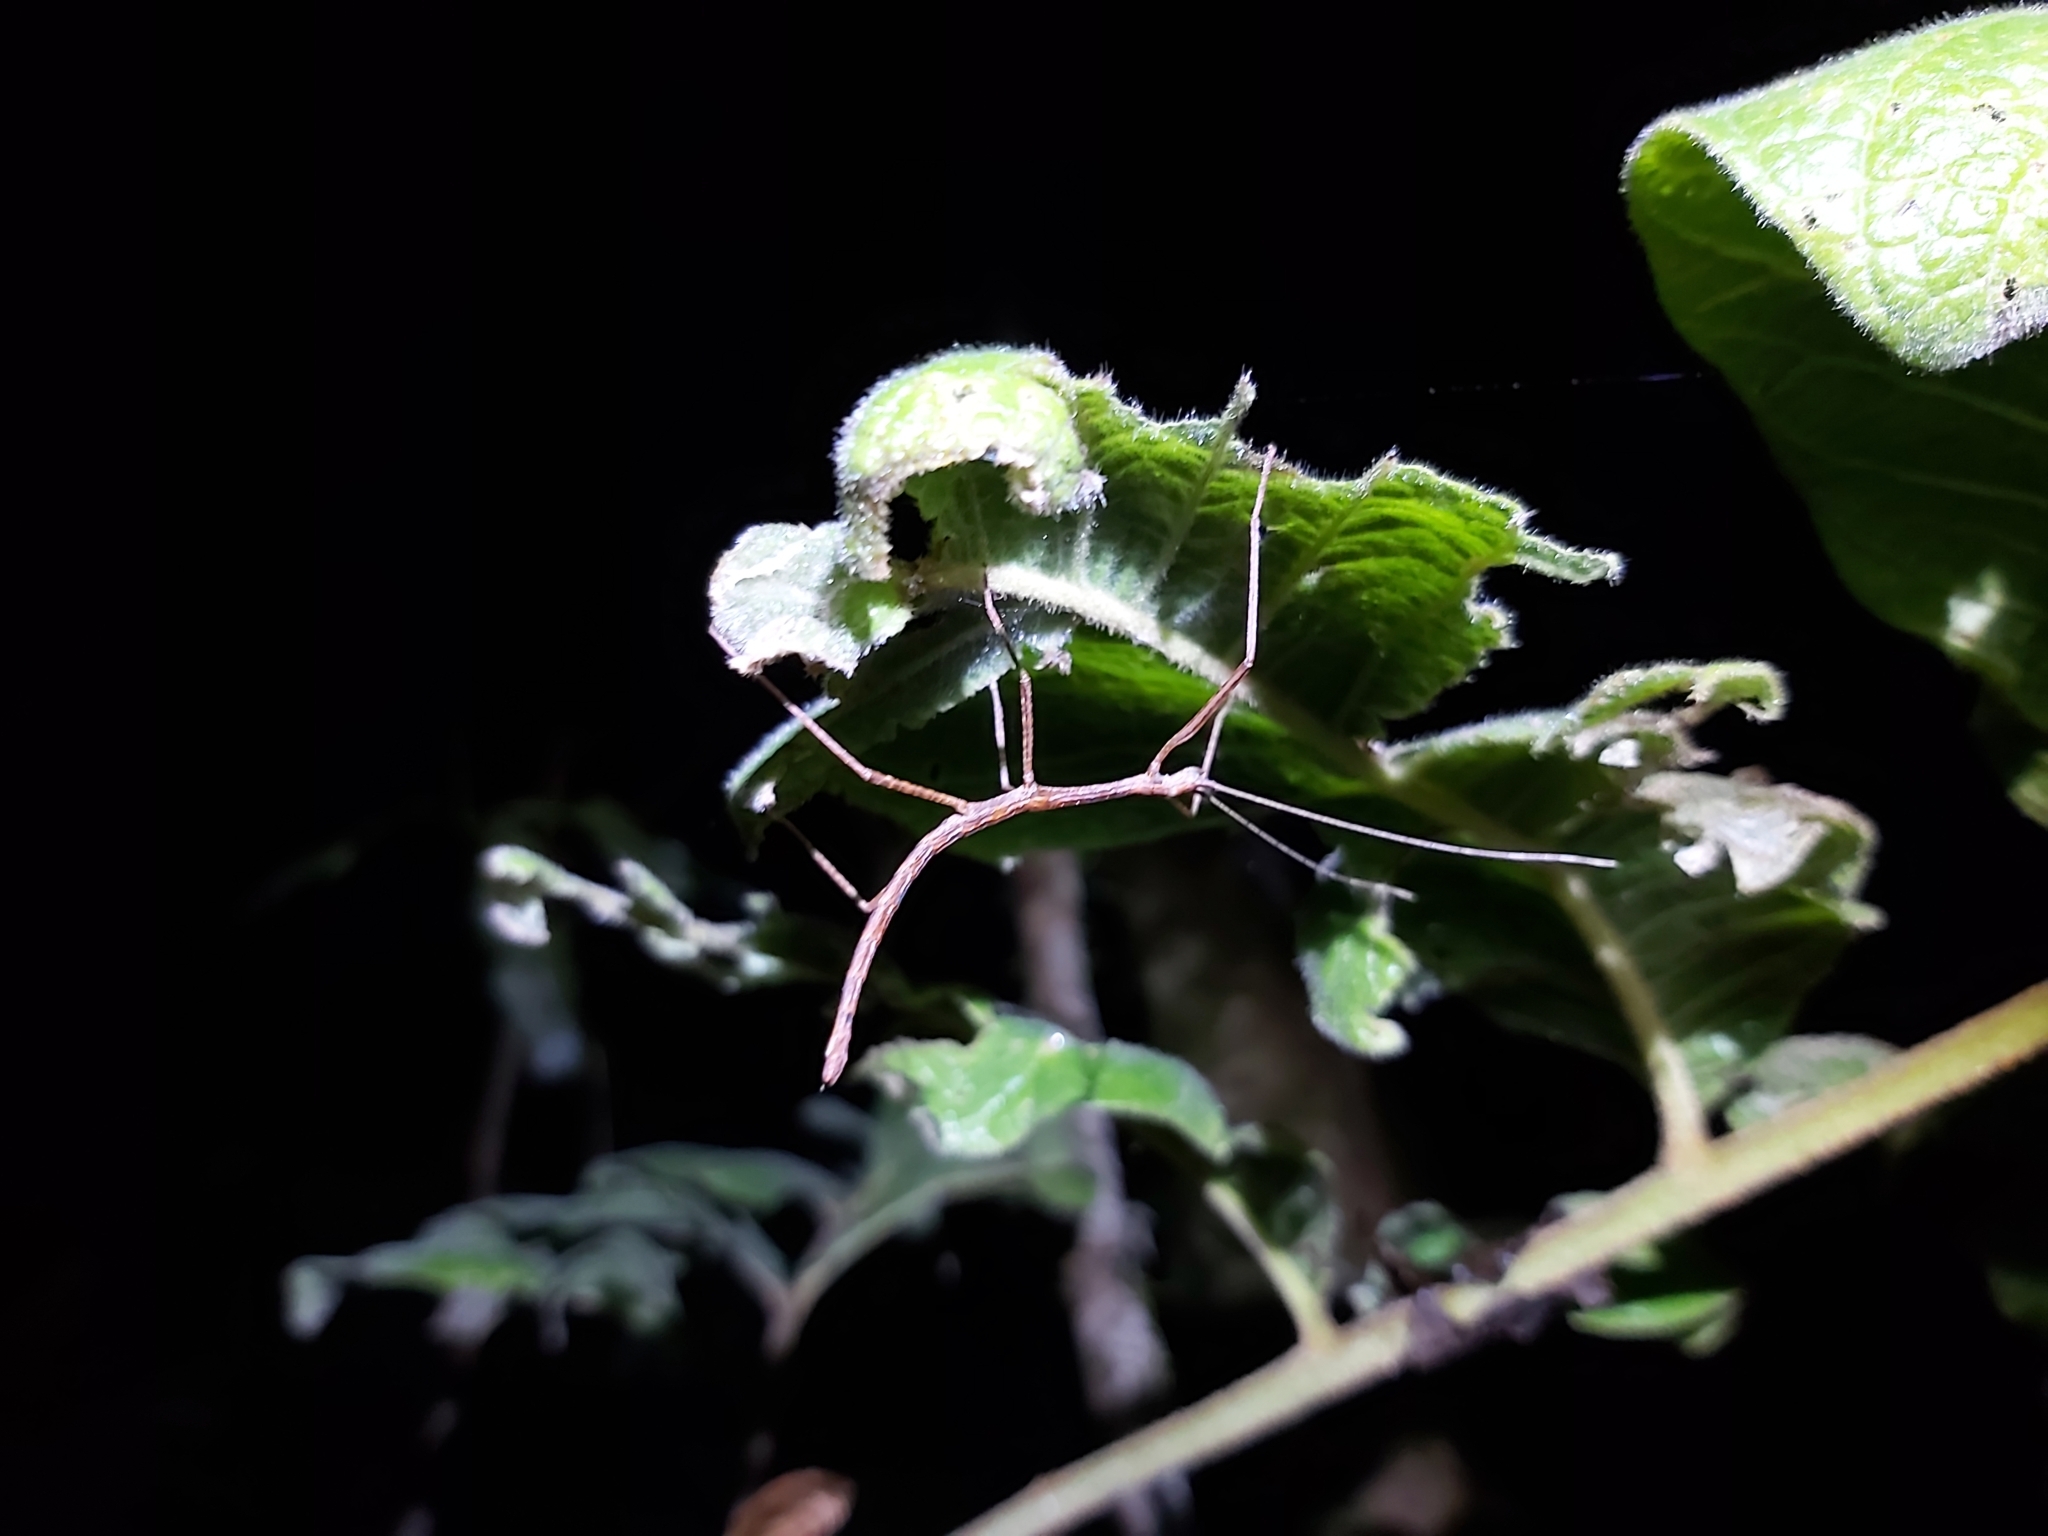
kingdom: Animalia
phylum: Arthropoda
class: Insecta
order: Phasmida
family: Lonchodidae
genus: Candovia
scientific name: Candovia granulosa
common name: Granulated stick-insect
